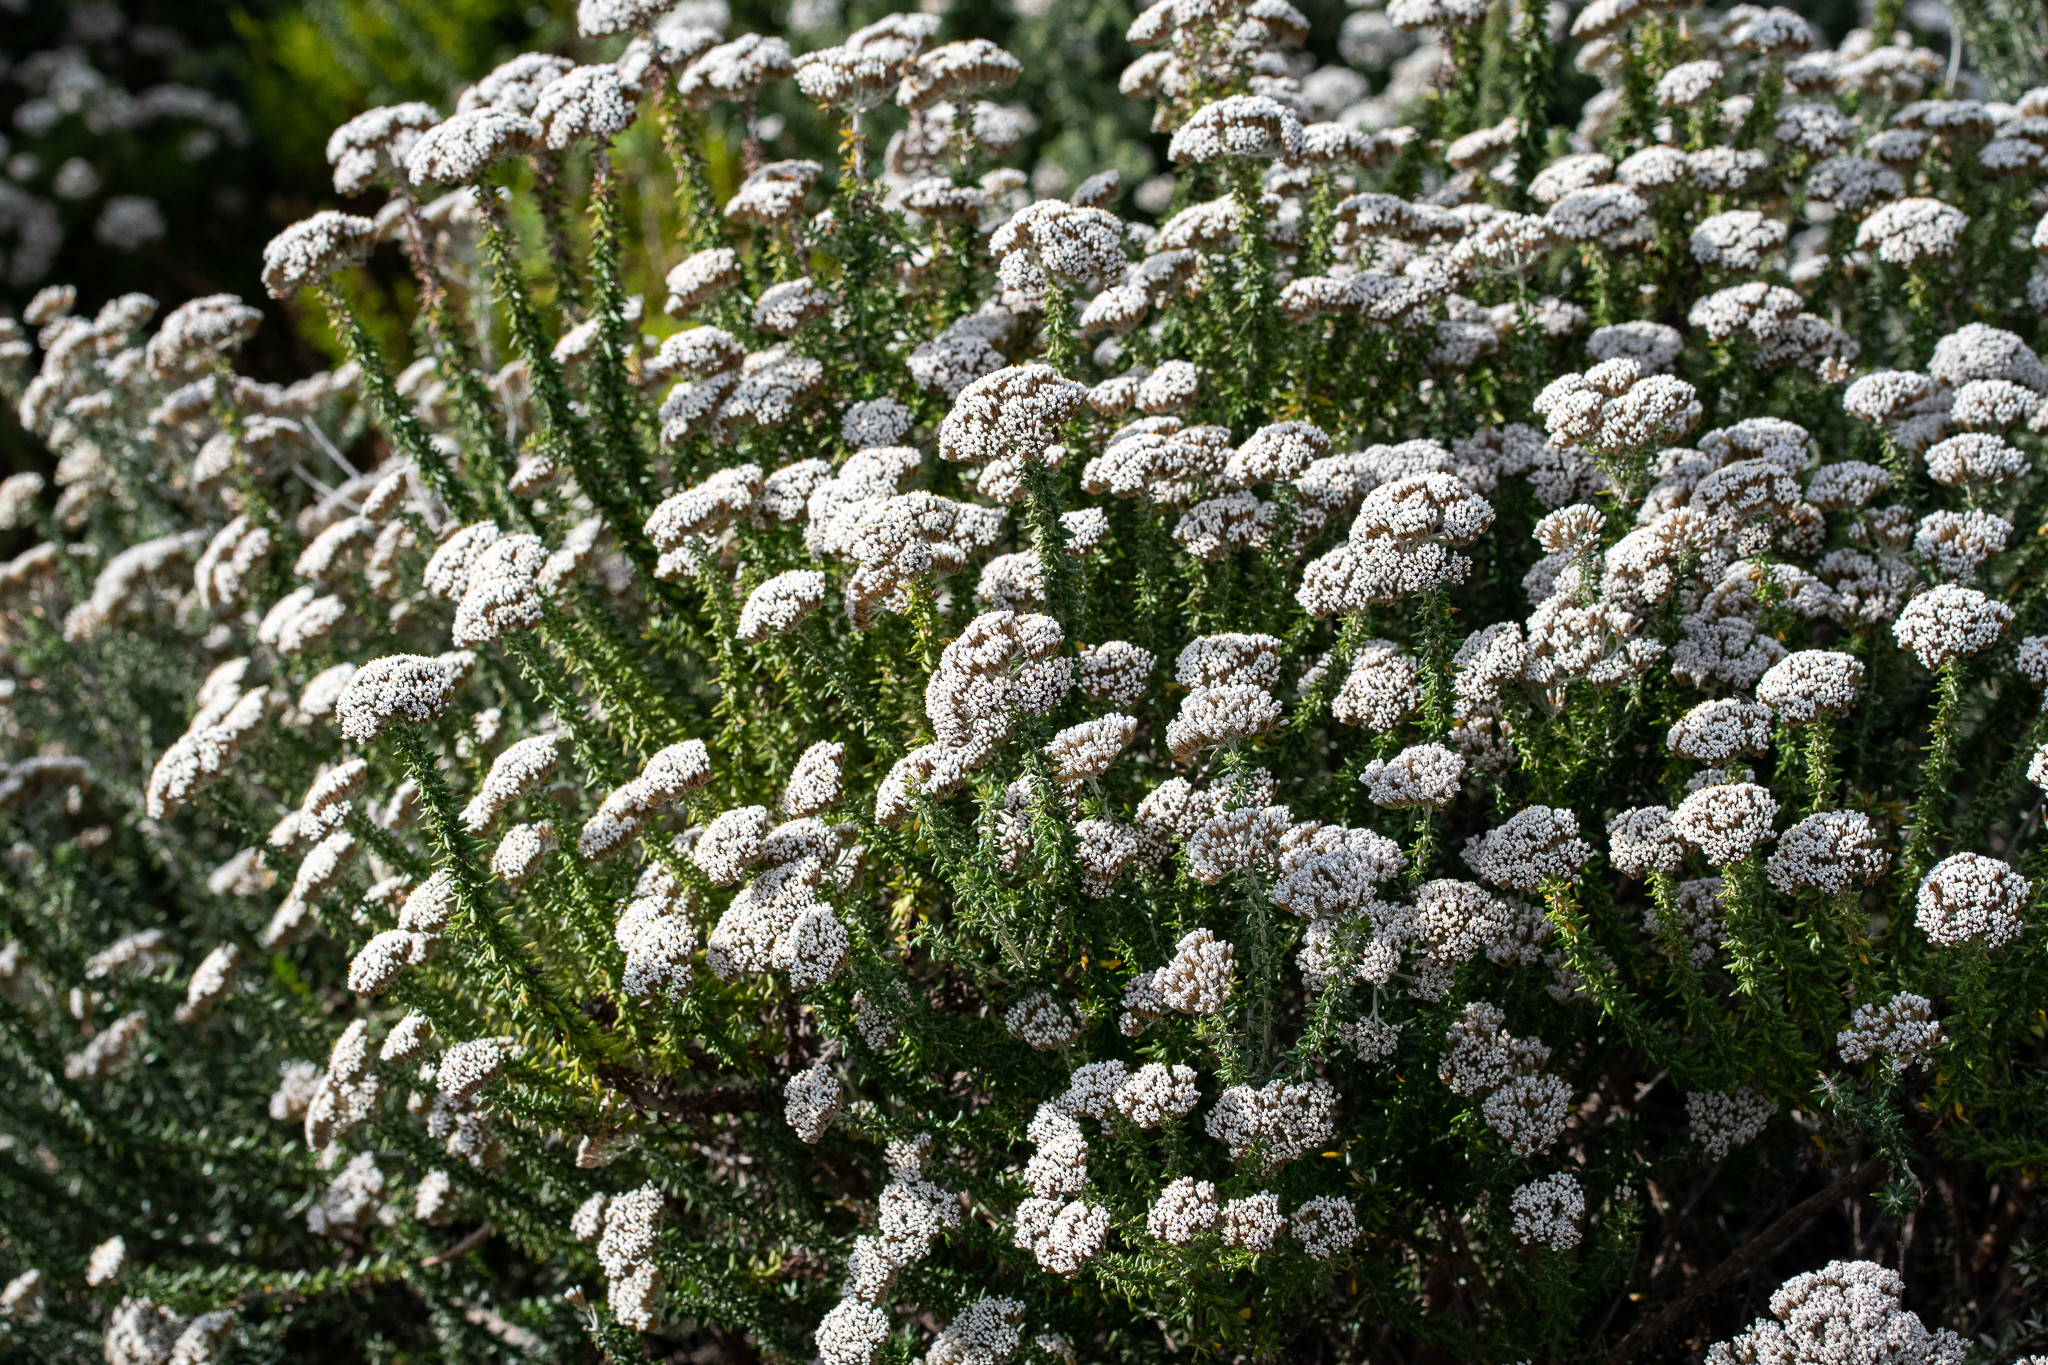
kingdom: Plantae
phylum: Tracheophyta
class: Magnoliopsida
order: Asterales
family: Asteraceae
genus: Metalasia
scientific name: Metalasia muricata
